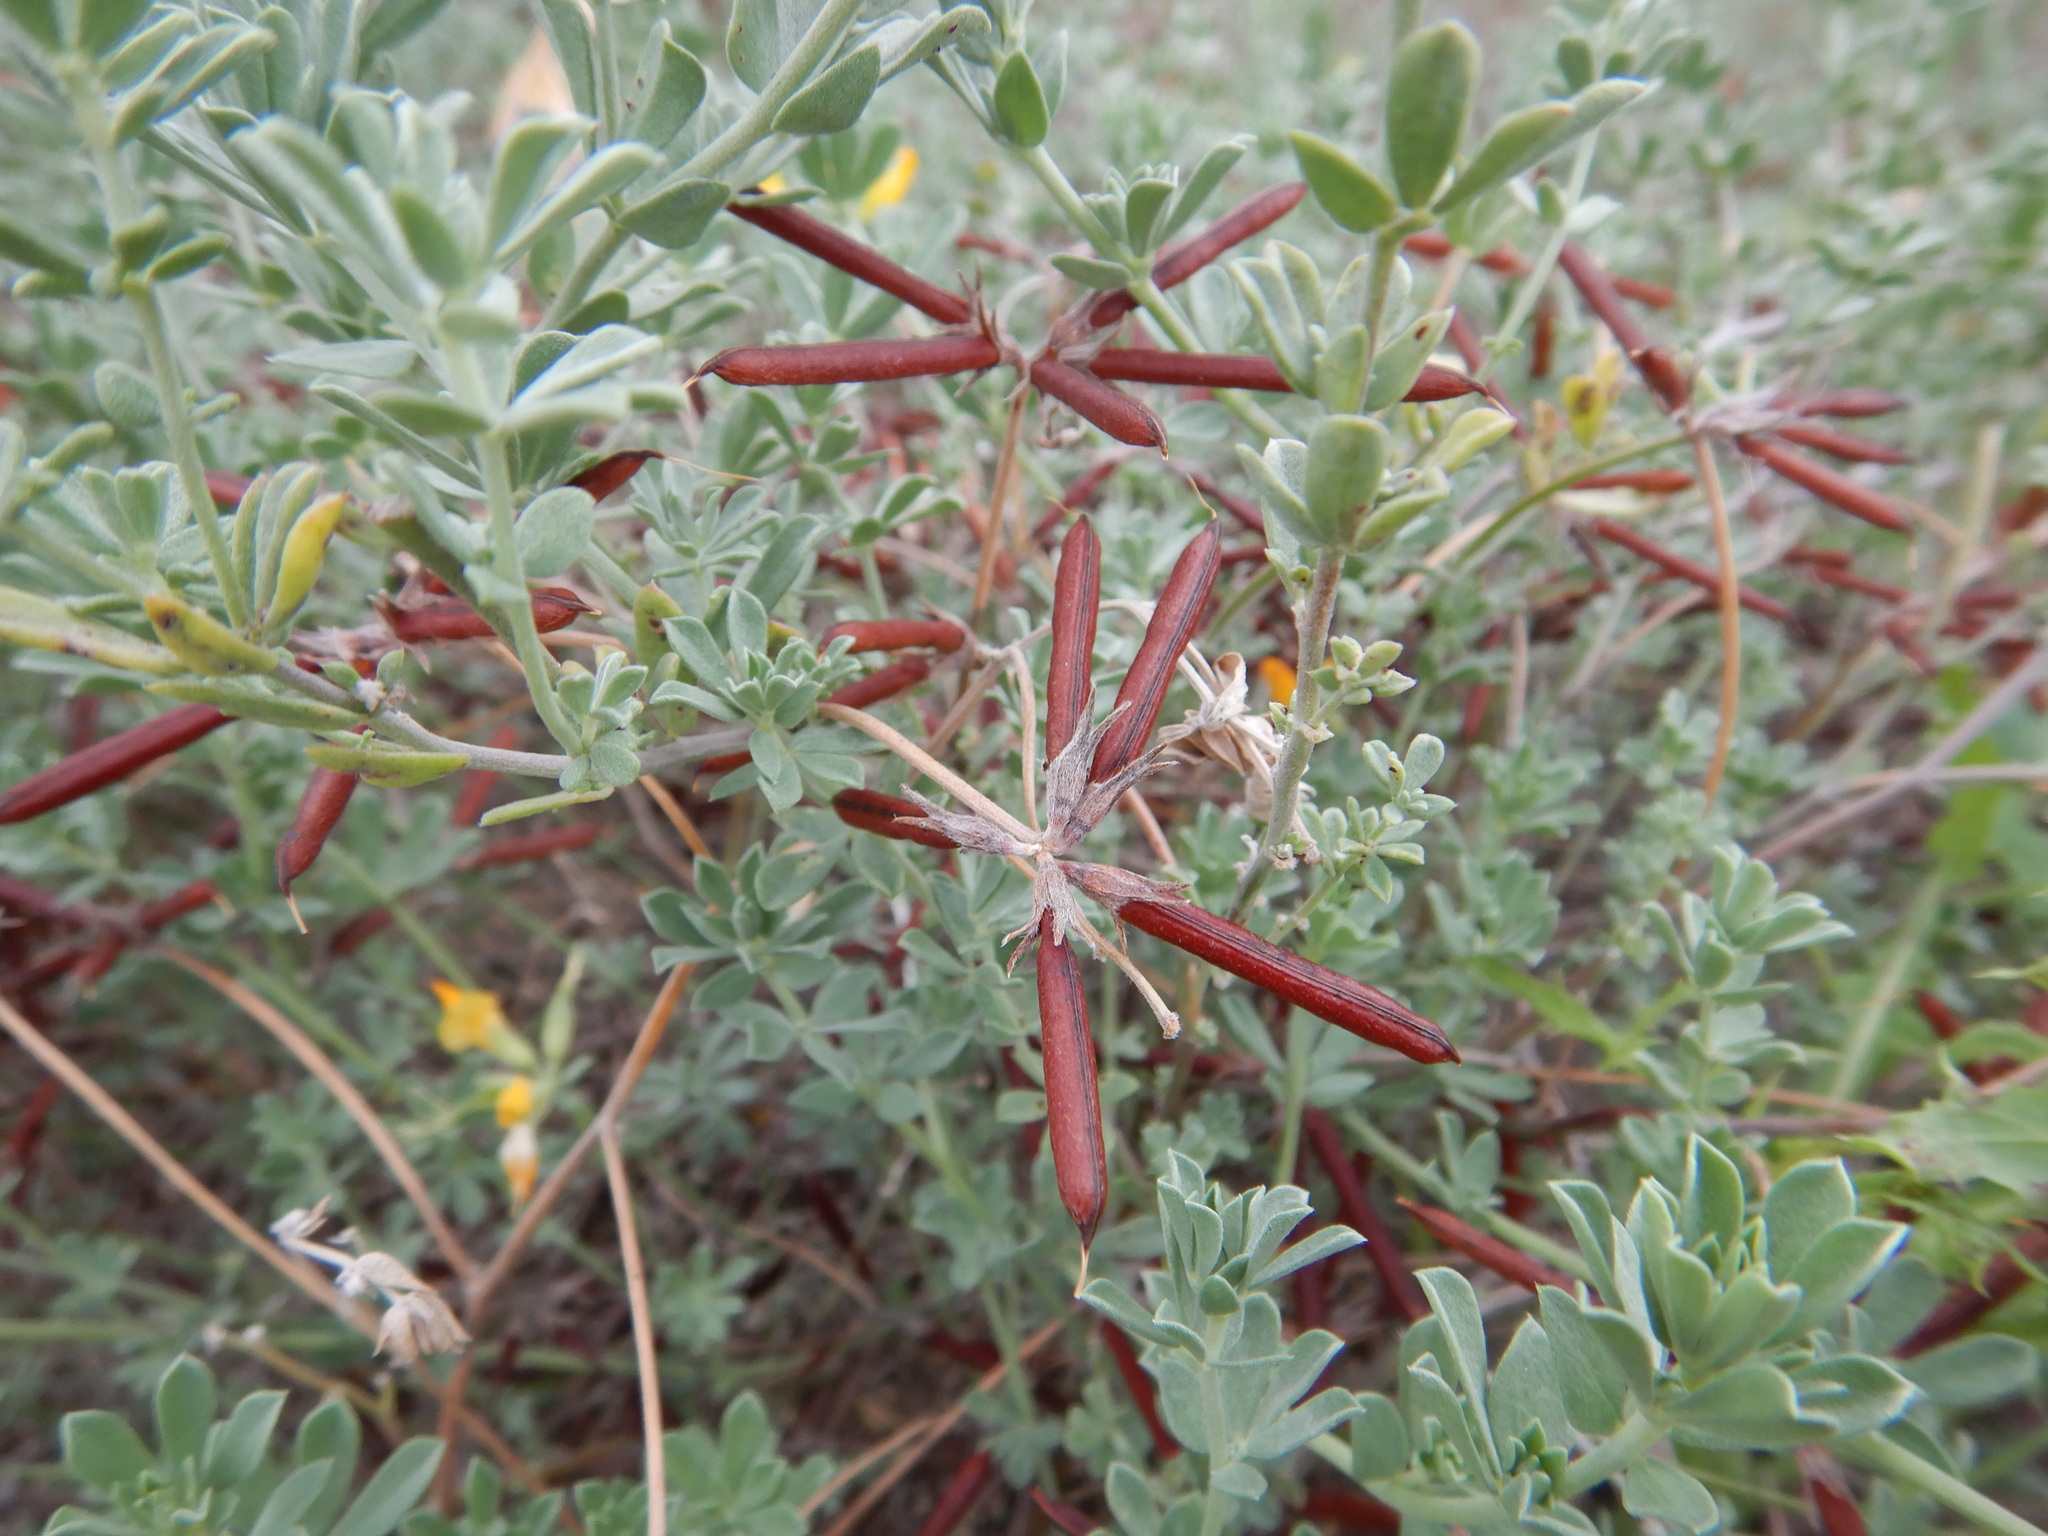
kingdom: Plantae
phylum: Tracheophyta
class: Magnoliopsida
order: Fabales
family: Fabaceae
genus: Lotus
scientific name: Lotus creticus
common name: Cretan bird's-foot trefoil
